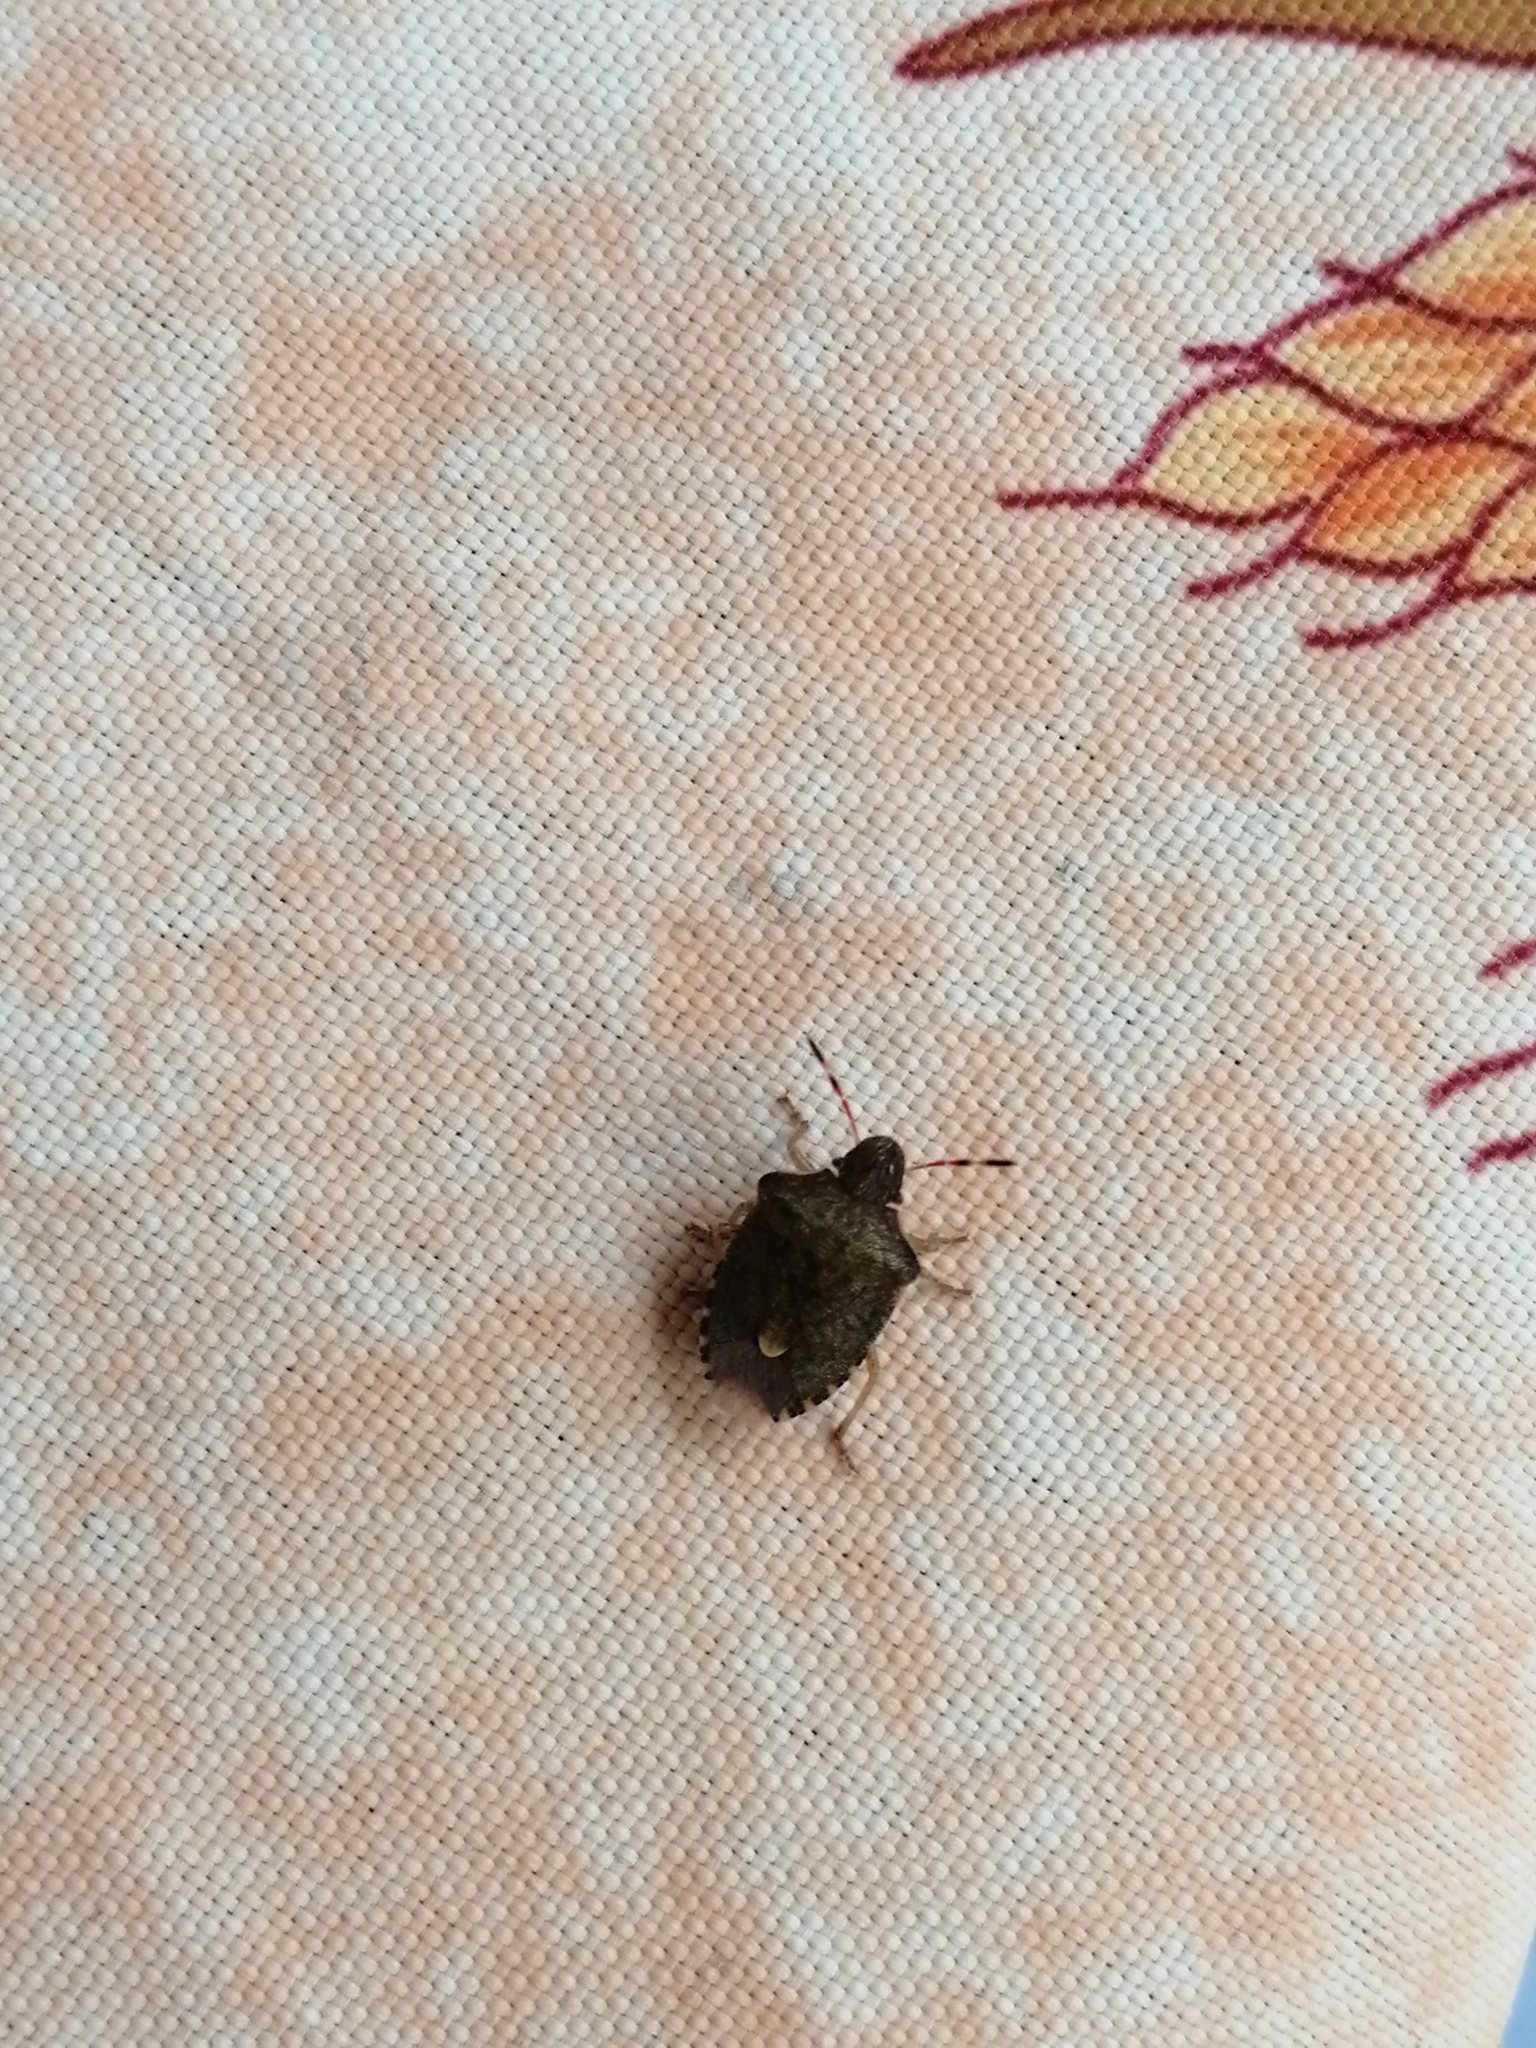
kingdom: Animalia
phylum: Arthropoda
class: Insecta
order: Hemiptera
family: Pentatomidae
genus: Holcostethus
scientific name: Holcostethus strictus
